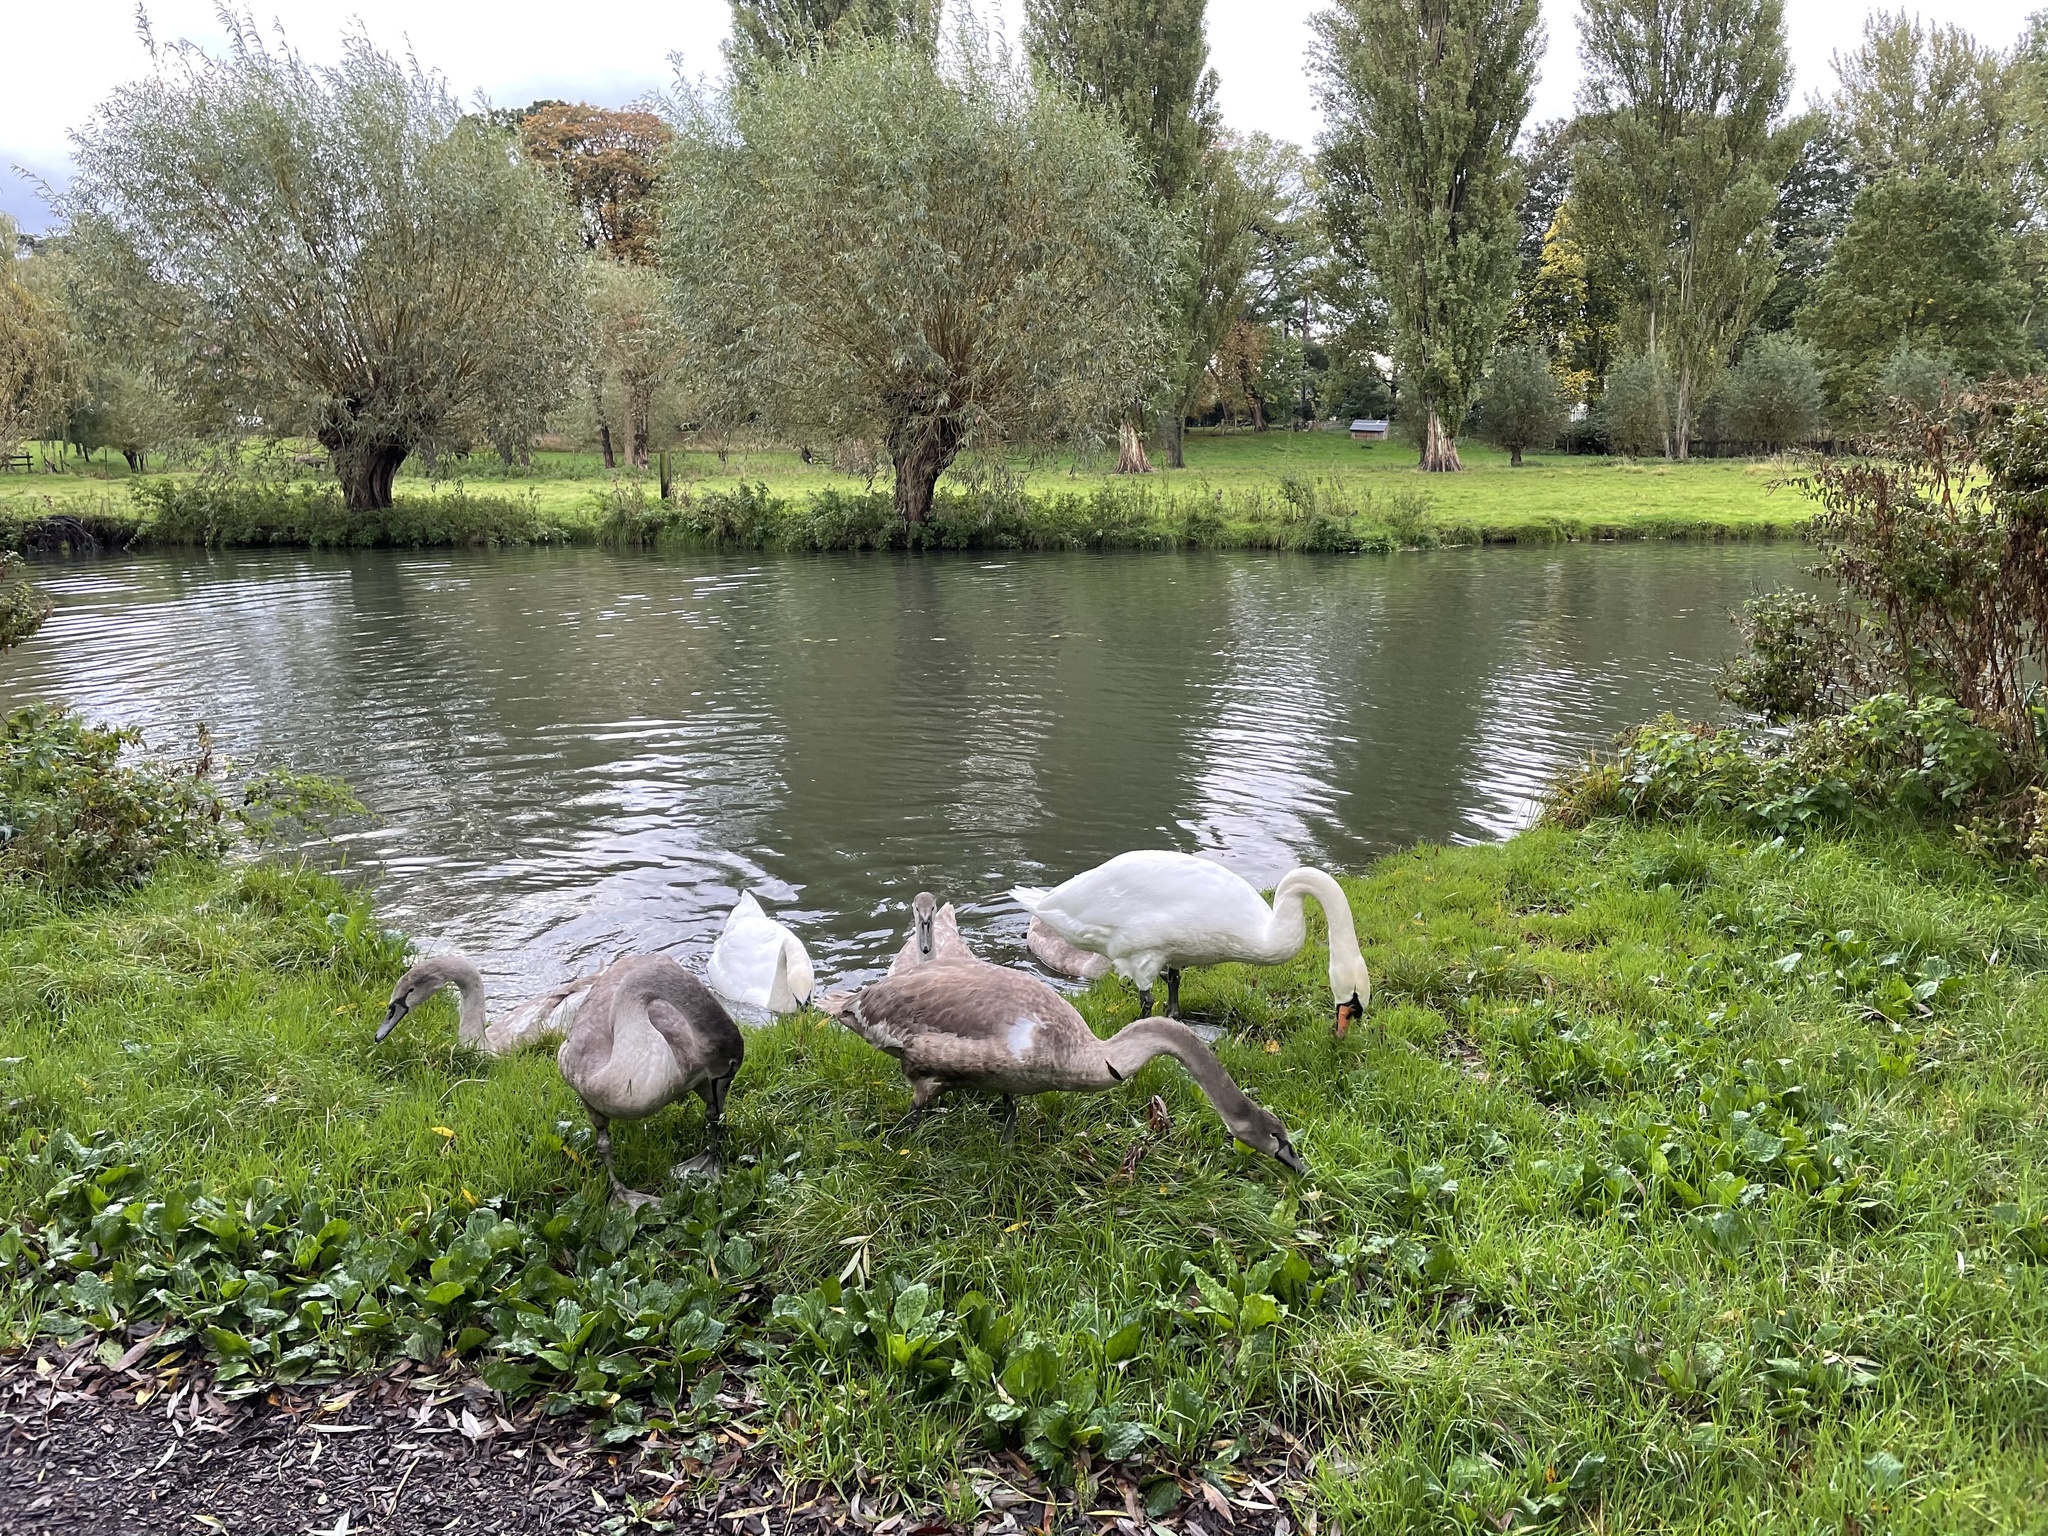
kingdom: Animalia
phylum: Chordata
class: Aves
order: Anseriformes
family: Anatidae
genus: Cygnus
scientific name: Cygnus olor
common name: Mute swan
